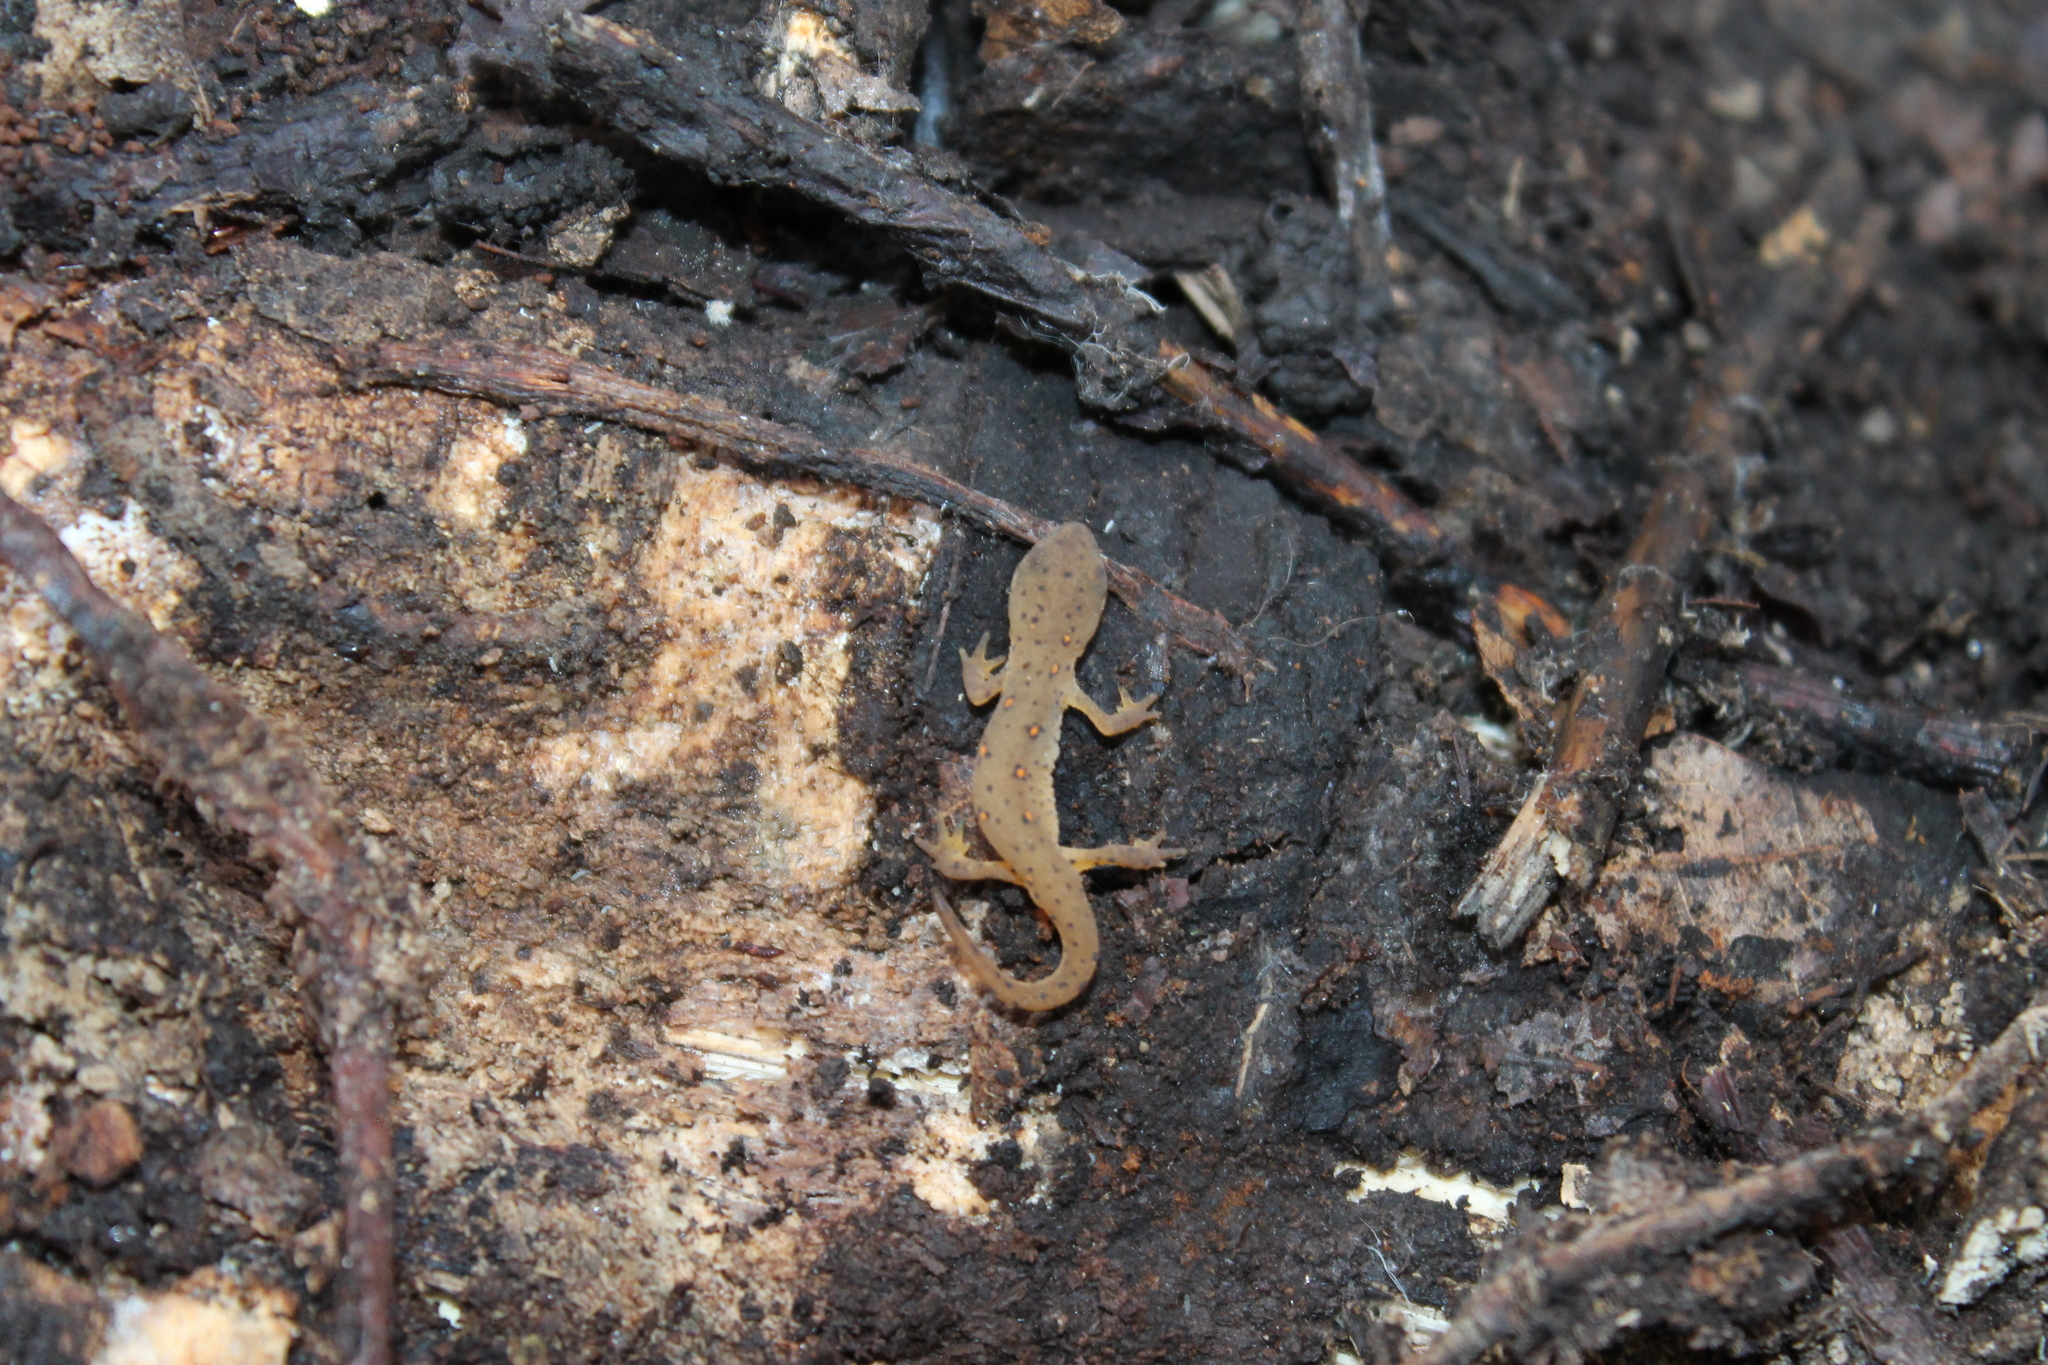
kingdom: Animalia
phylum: Chordata
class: Amphibia
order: Caudata
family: Salamandridae
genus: Notophthalmus
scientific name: Notophthalmus viridescens
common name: Eastern newt
